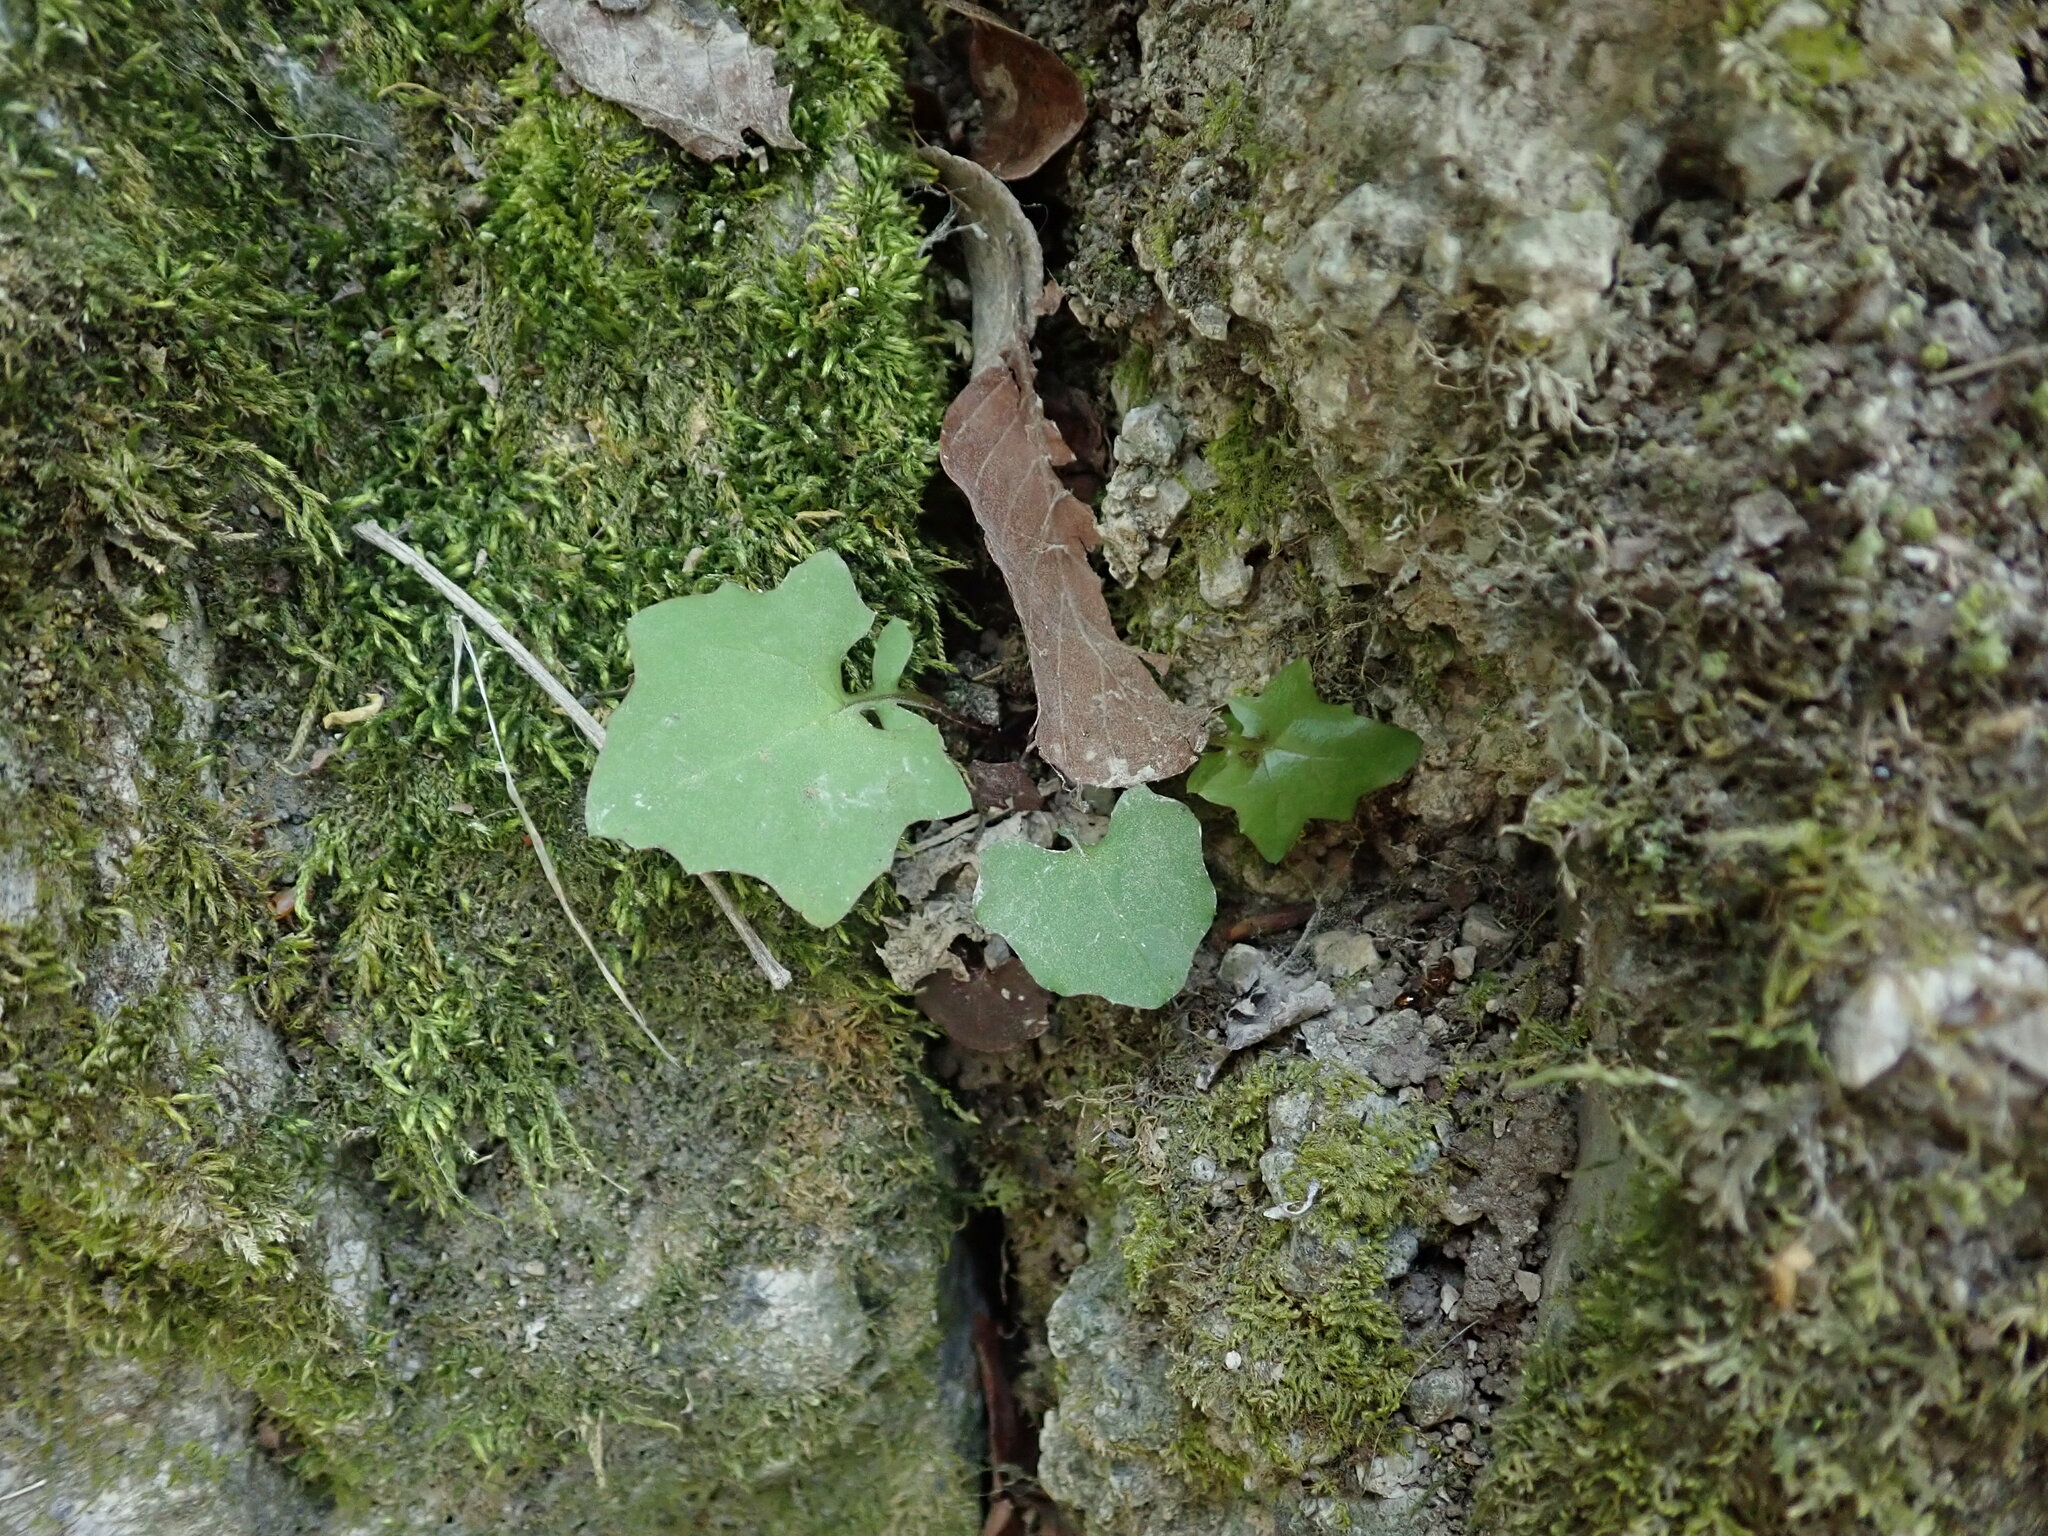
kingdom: Plantae
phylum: Tracheophyta
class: Magnoliopsida
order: Asterales
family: Asteraceae
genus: Mycelis
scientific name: Mycelis muralis
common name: Wall lettuce
